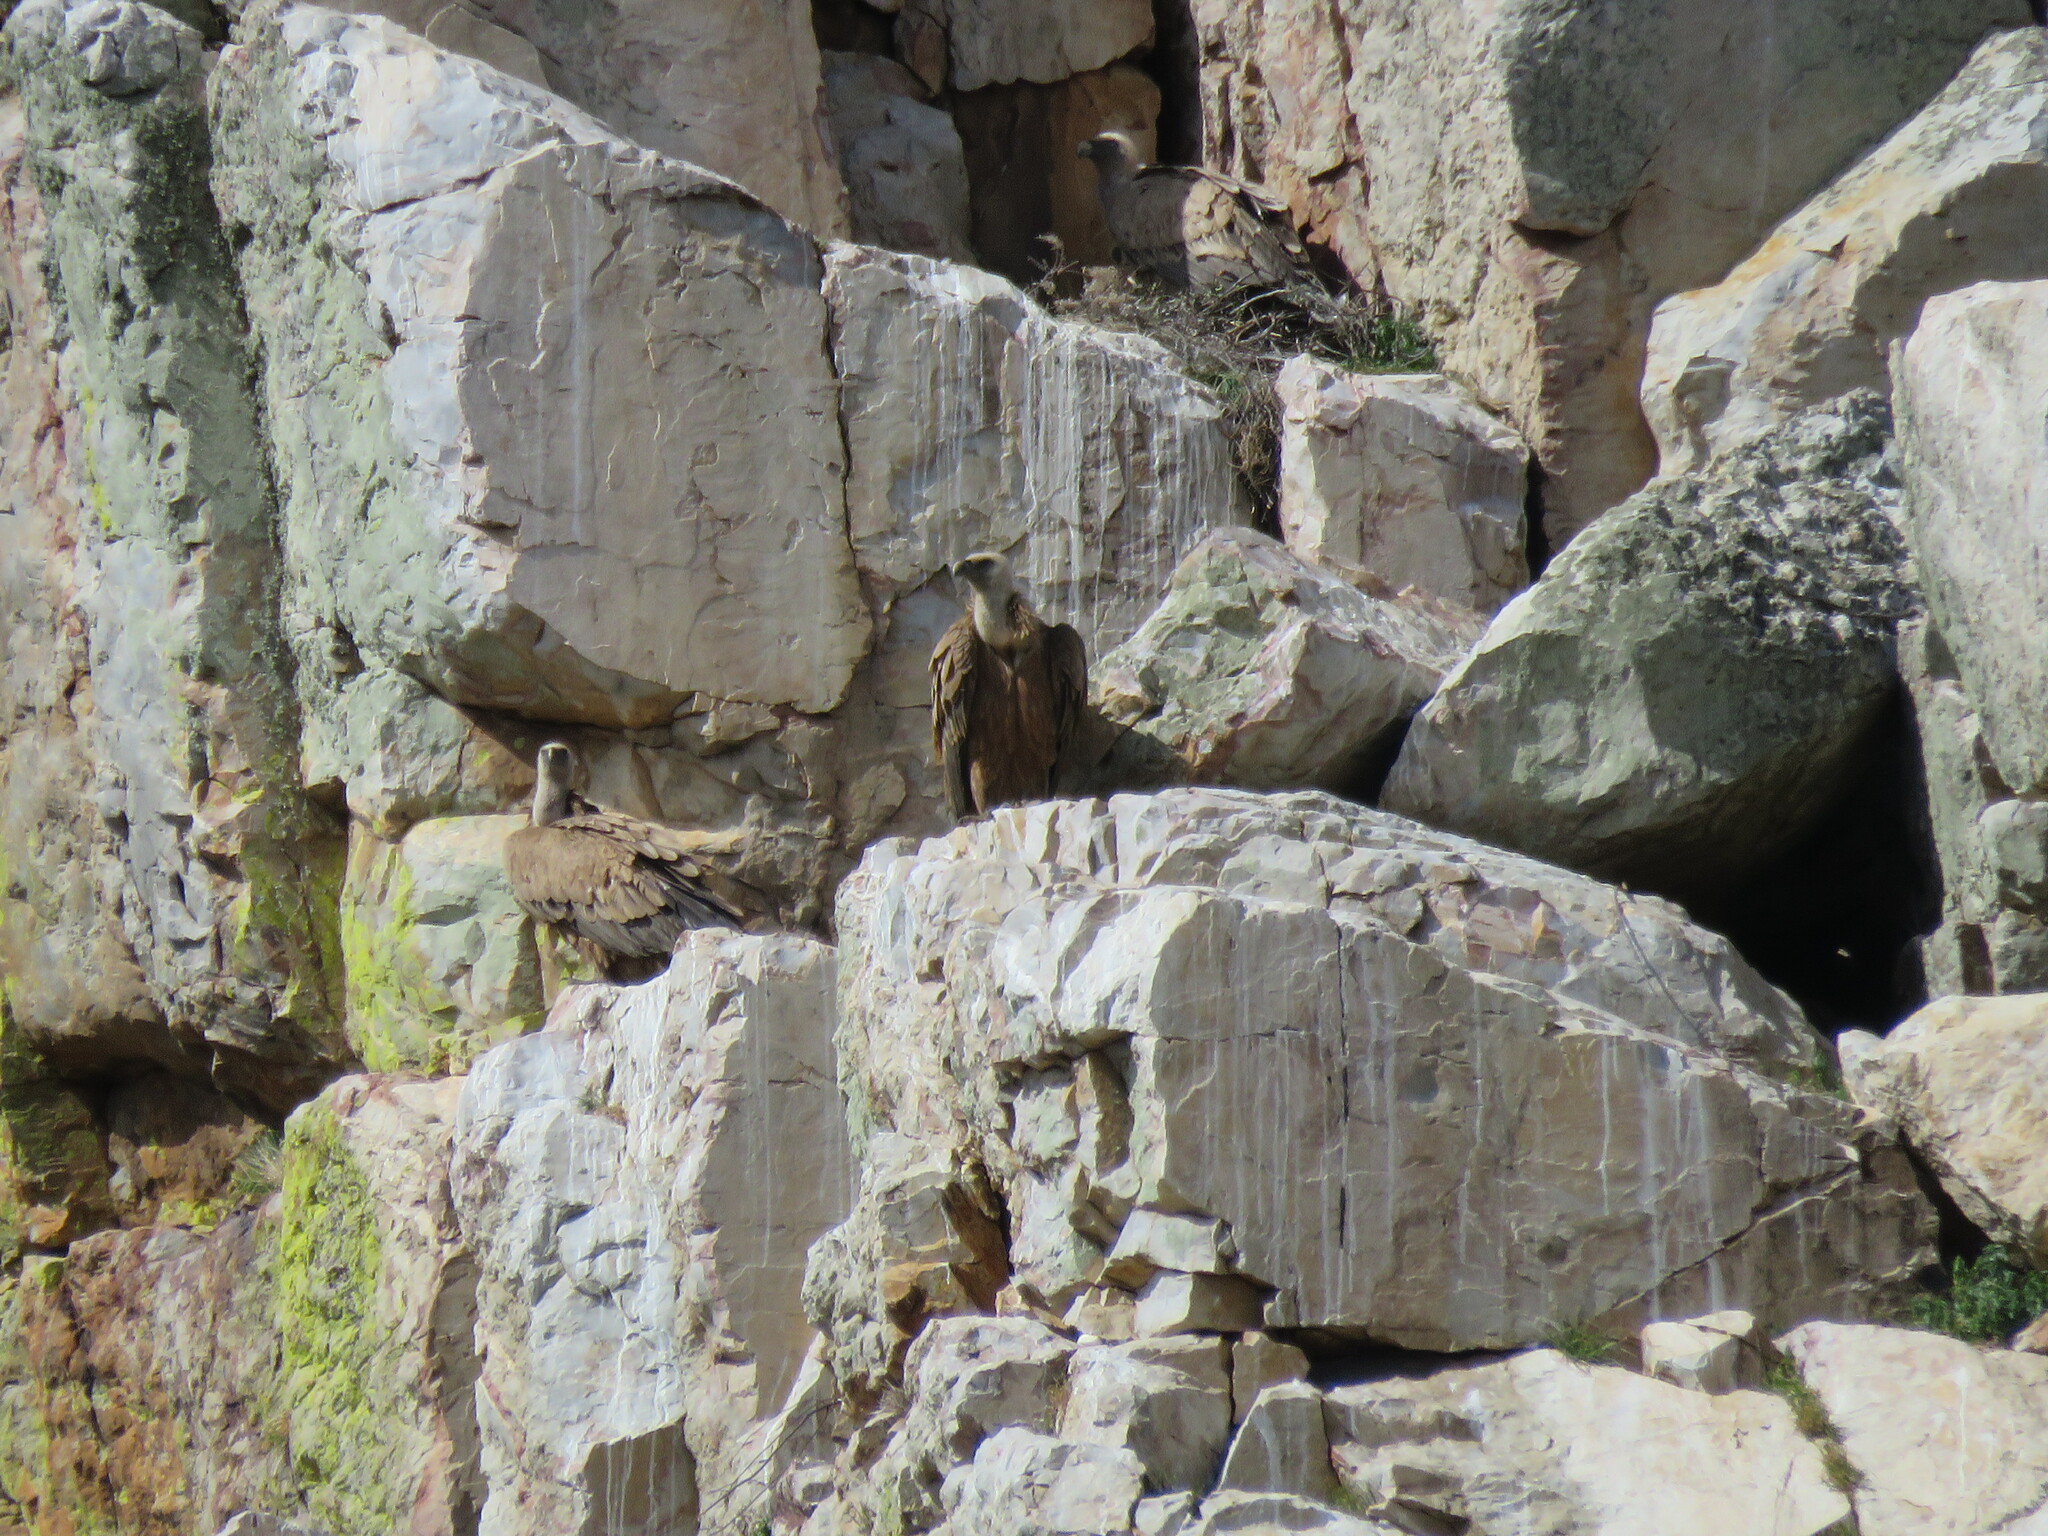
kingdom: Animalia
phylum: Chordata
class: Aves
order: Accipitriformes
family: Accipitridae
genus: Gyps
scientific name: Gyps fulvus
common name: Griffon vulture
